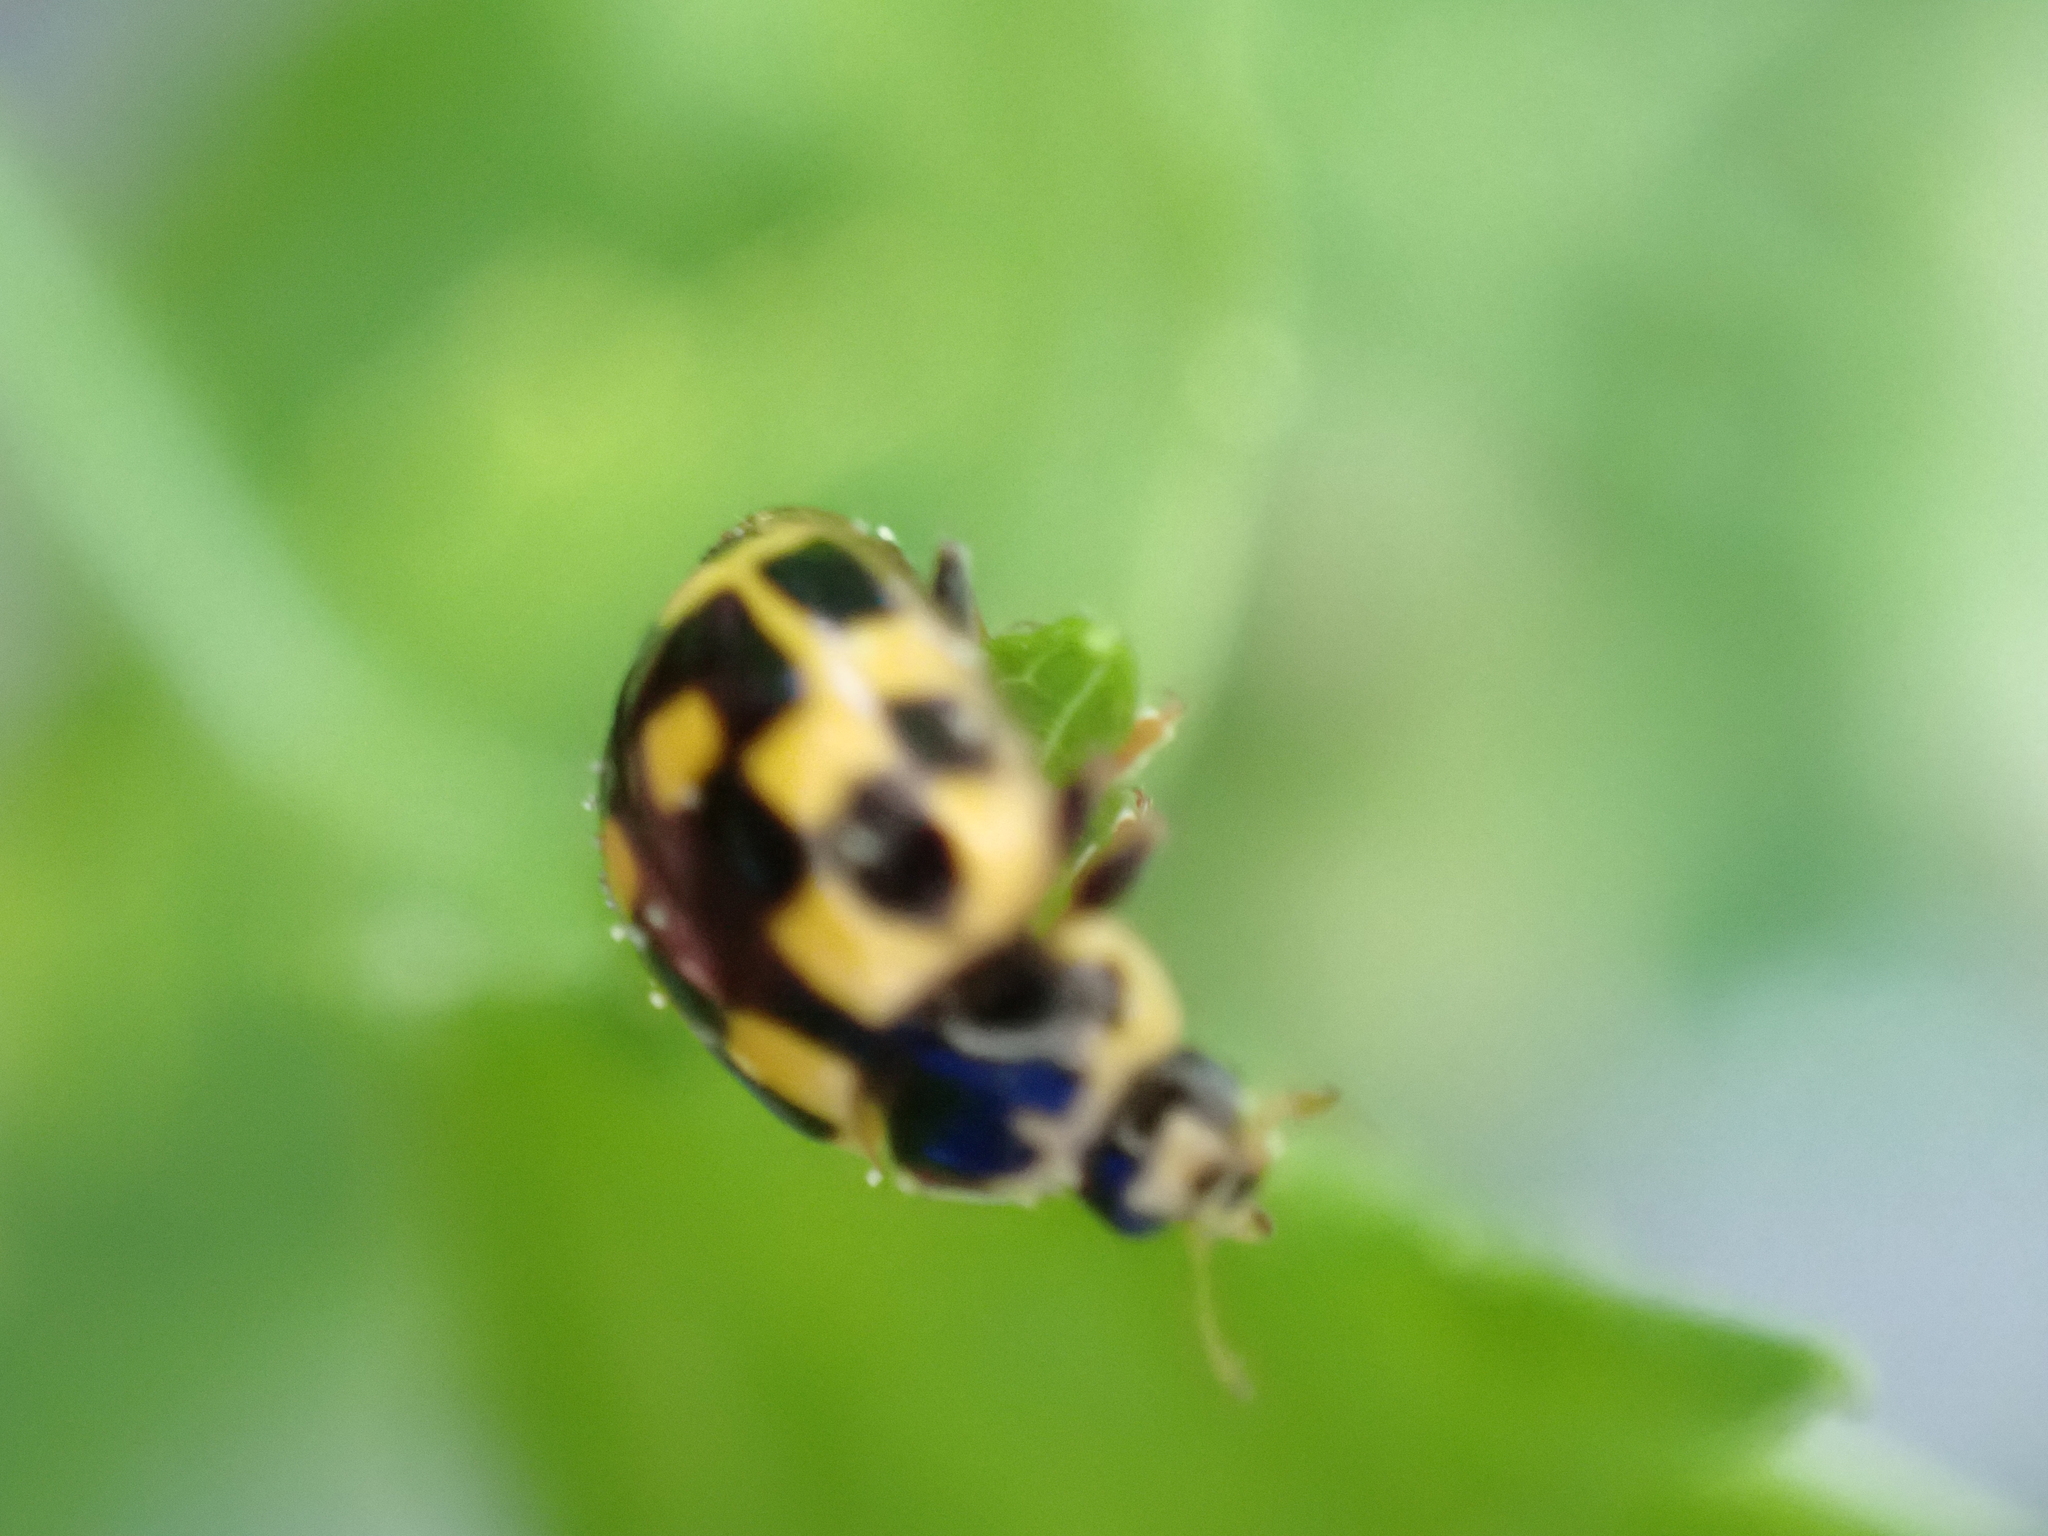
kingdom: Animalia
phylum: Arthropoda
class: Insecta
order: Coleoptera
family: Coccinellidae
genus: Propylaea
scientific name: Propylaea quatuordecimpunctata
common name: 14-spotted ladybird beetle
